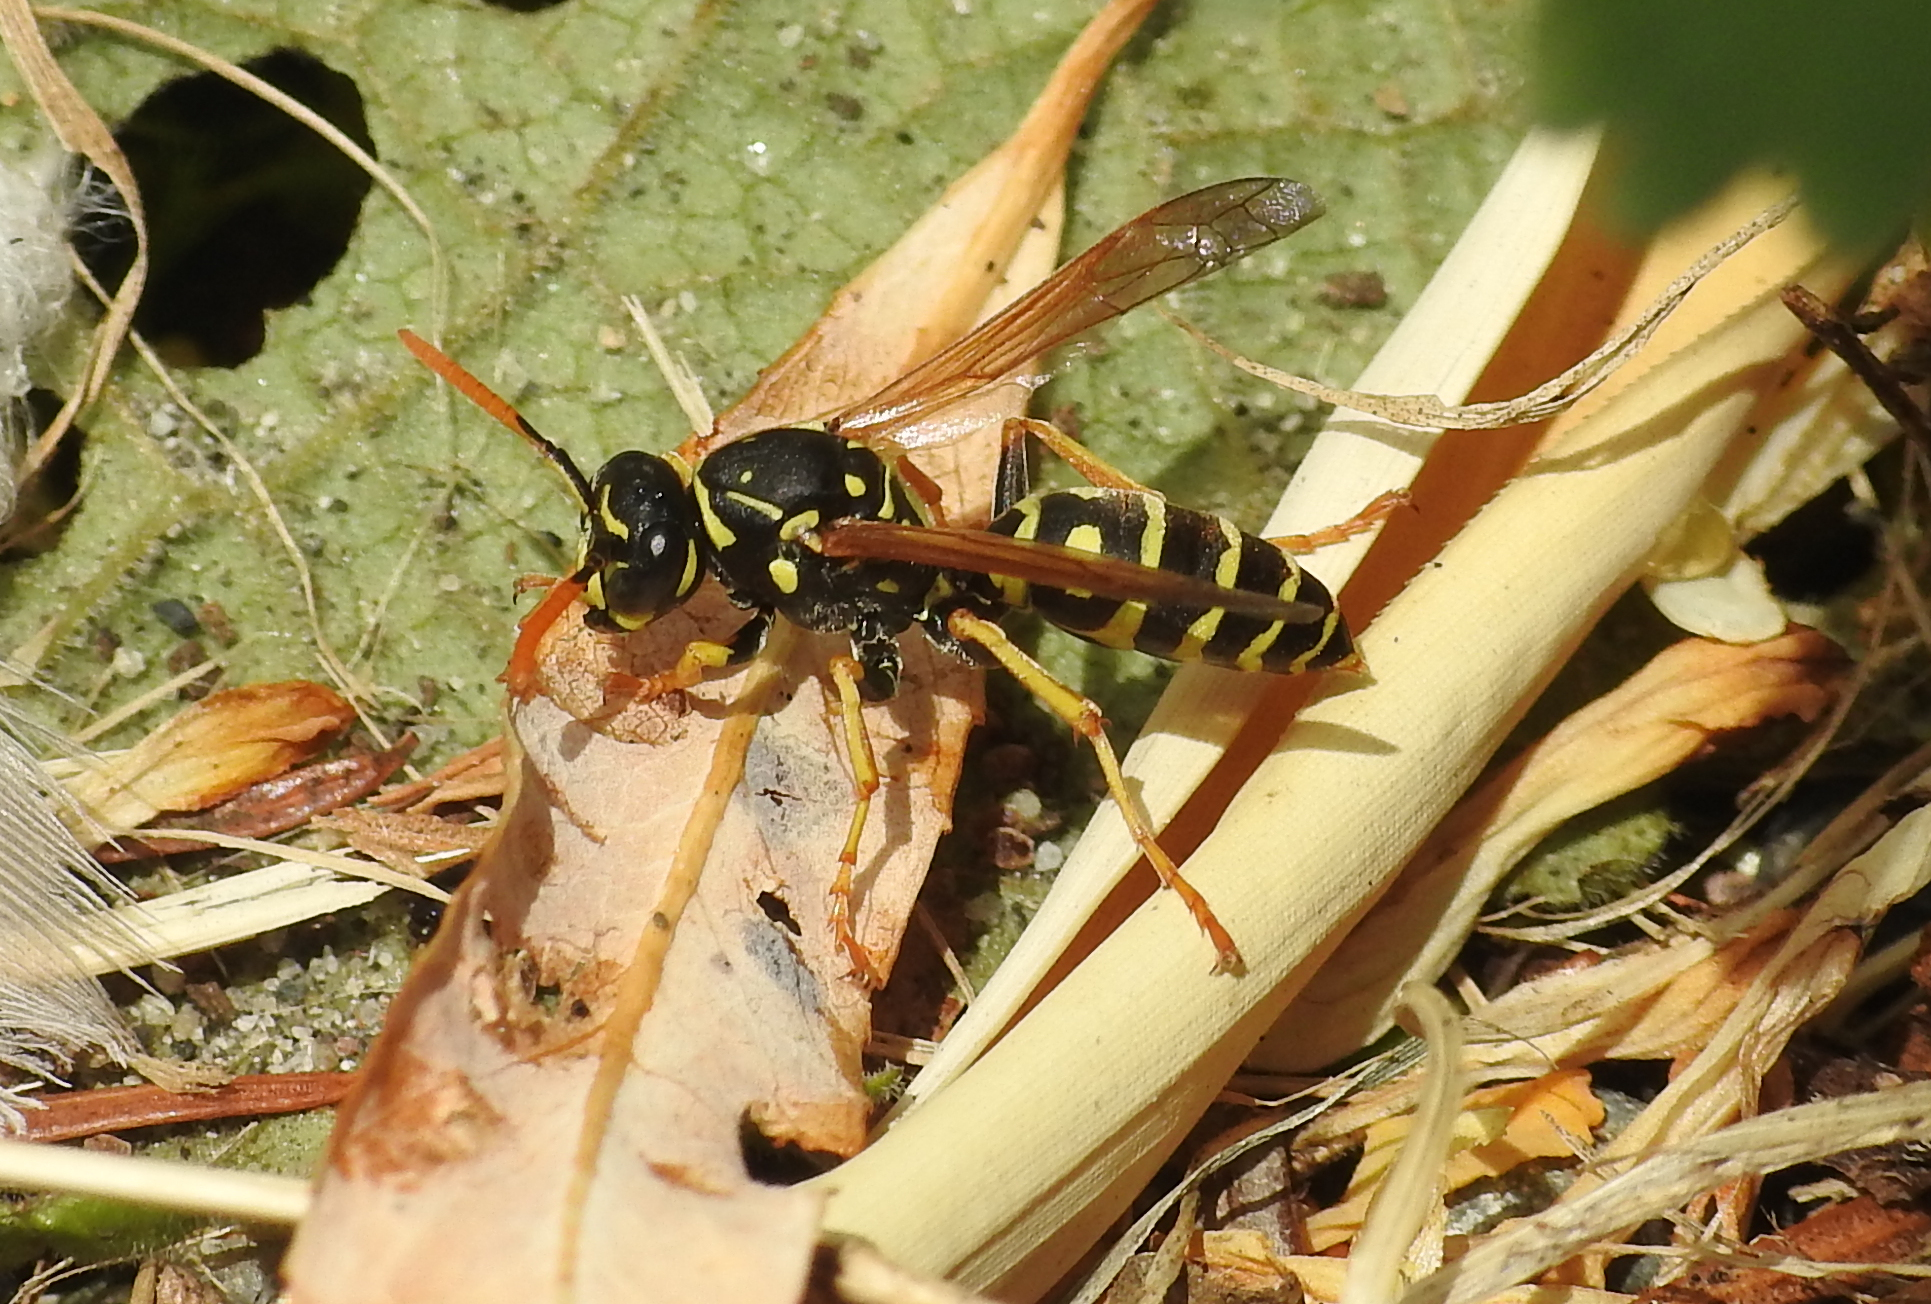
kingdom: Animalia
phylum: Arthropoda
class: Insecta
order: Hymenoptera
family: Eumenidae
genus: Polistes
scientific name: Polistes dominula
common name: Paper wasp
